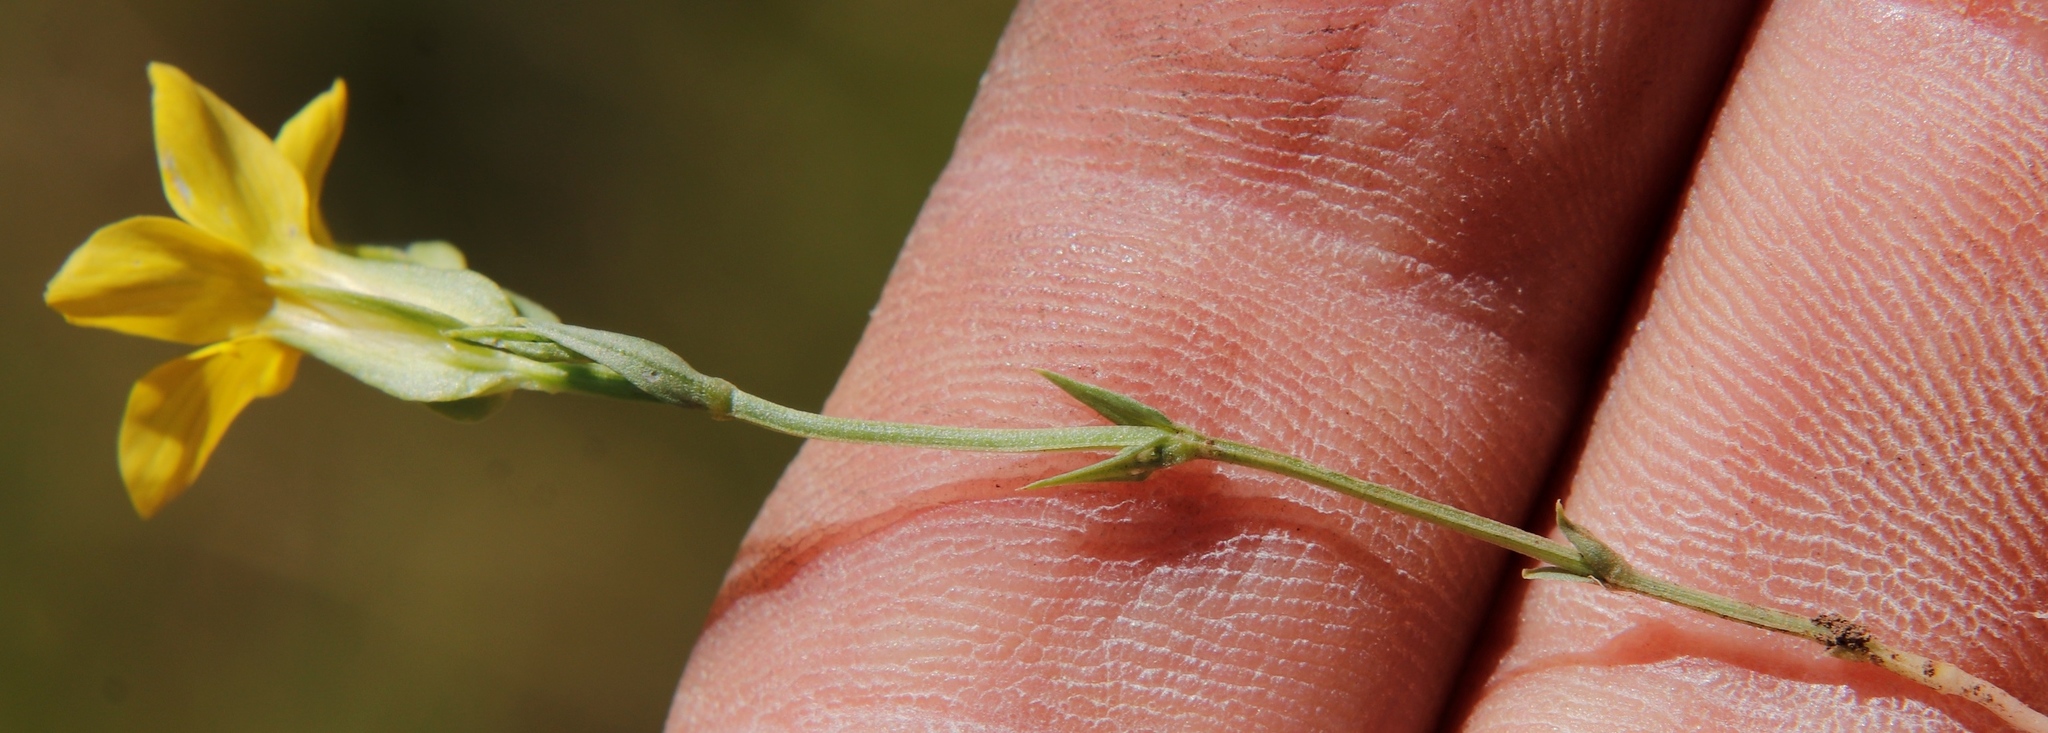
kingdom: Plantae
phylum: Tracheophyta
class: Magnoliopsida
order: Gentianales
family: Gentianaceae
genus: Sebaea
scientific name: Sebaea exigua
